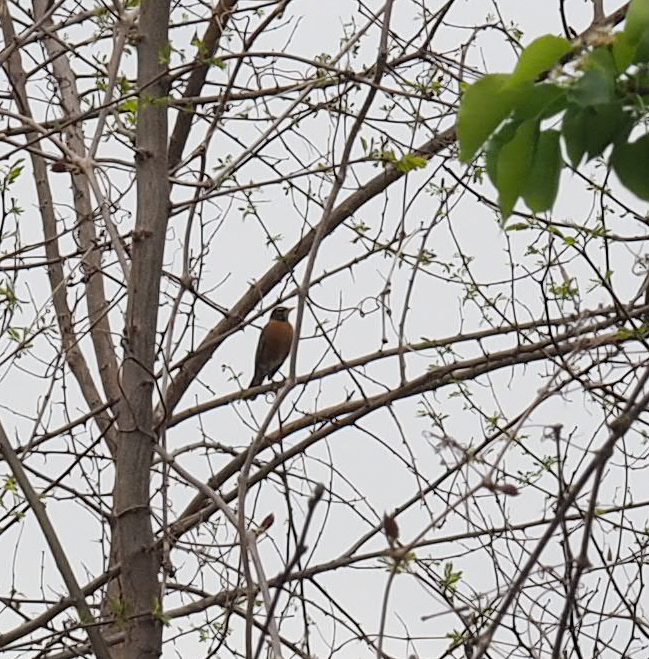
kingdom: Animalia
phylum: Chordata
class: Aves
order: Passeriformes
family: Turdidae
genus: Turdus
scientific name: Turdus migratorius
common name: American robin
